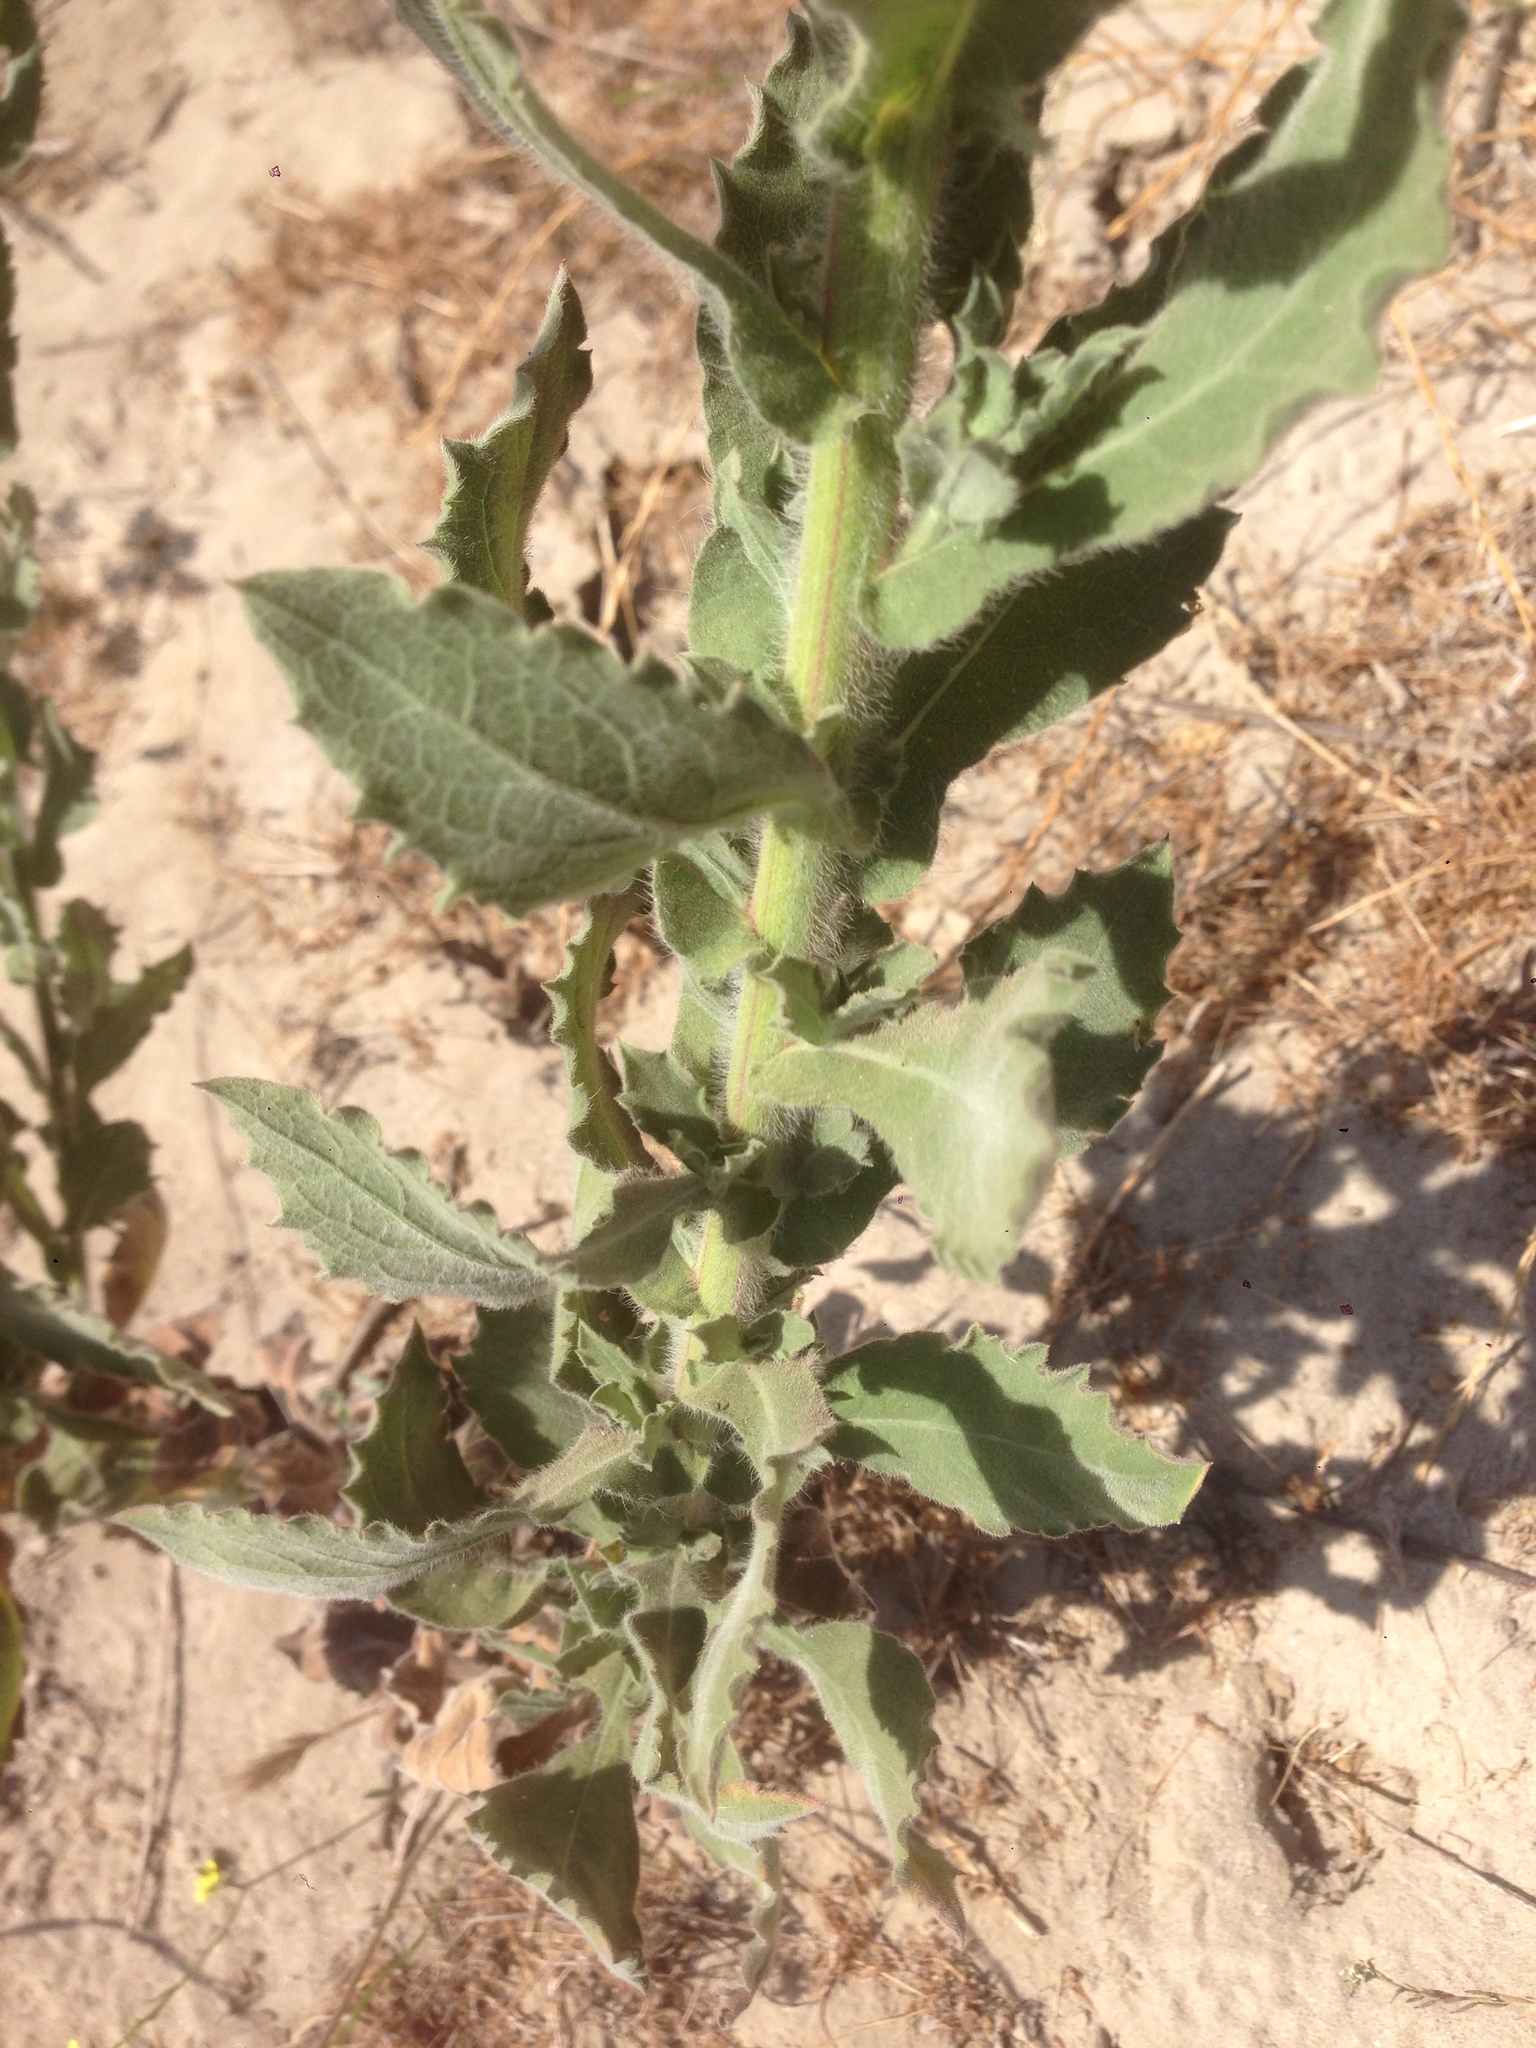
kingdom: Plantae
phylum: Tracheophyta
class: Magnoliopsida
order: Asterales
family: Asteraceae
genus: Heterotheca
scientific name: Heterotheca grandiflora
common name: Telegraphweed
